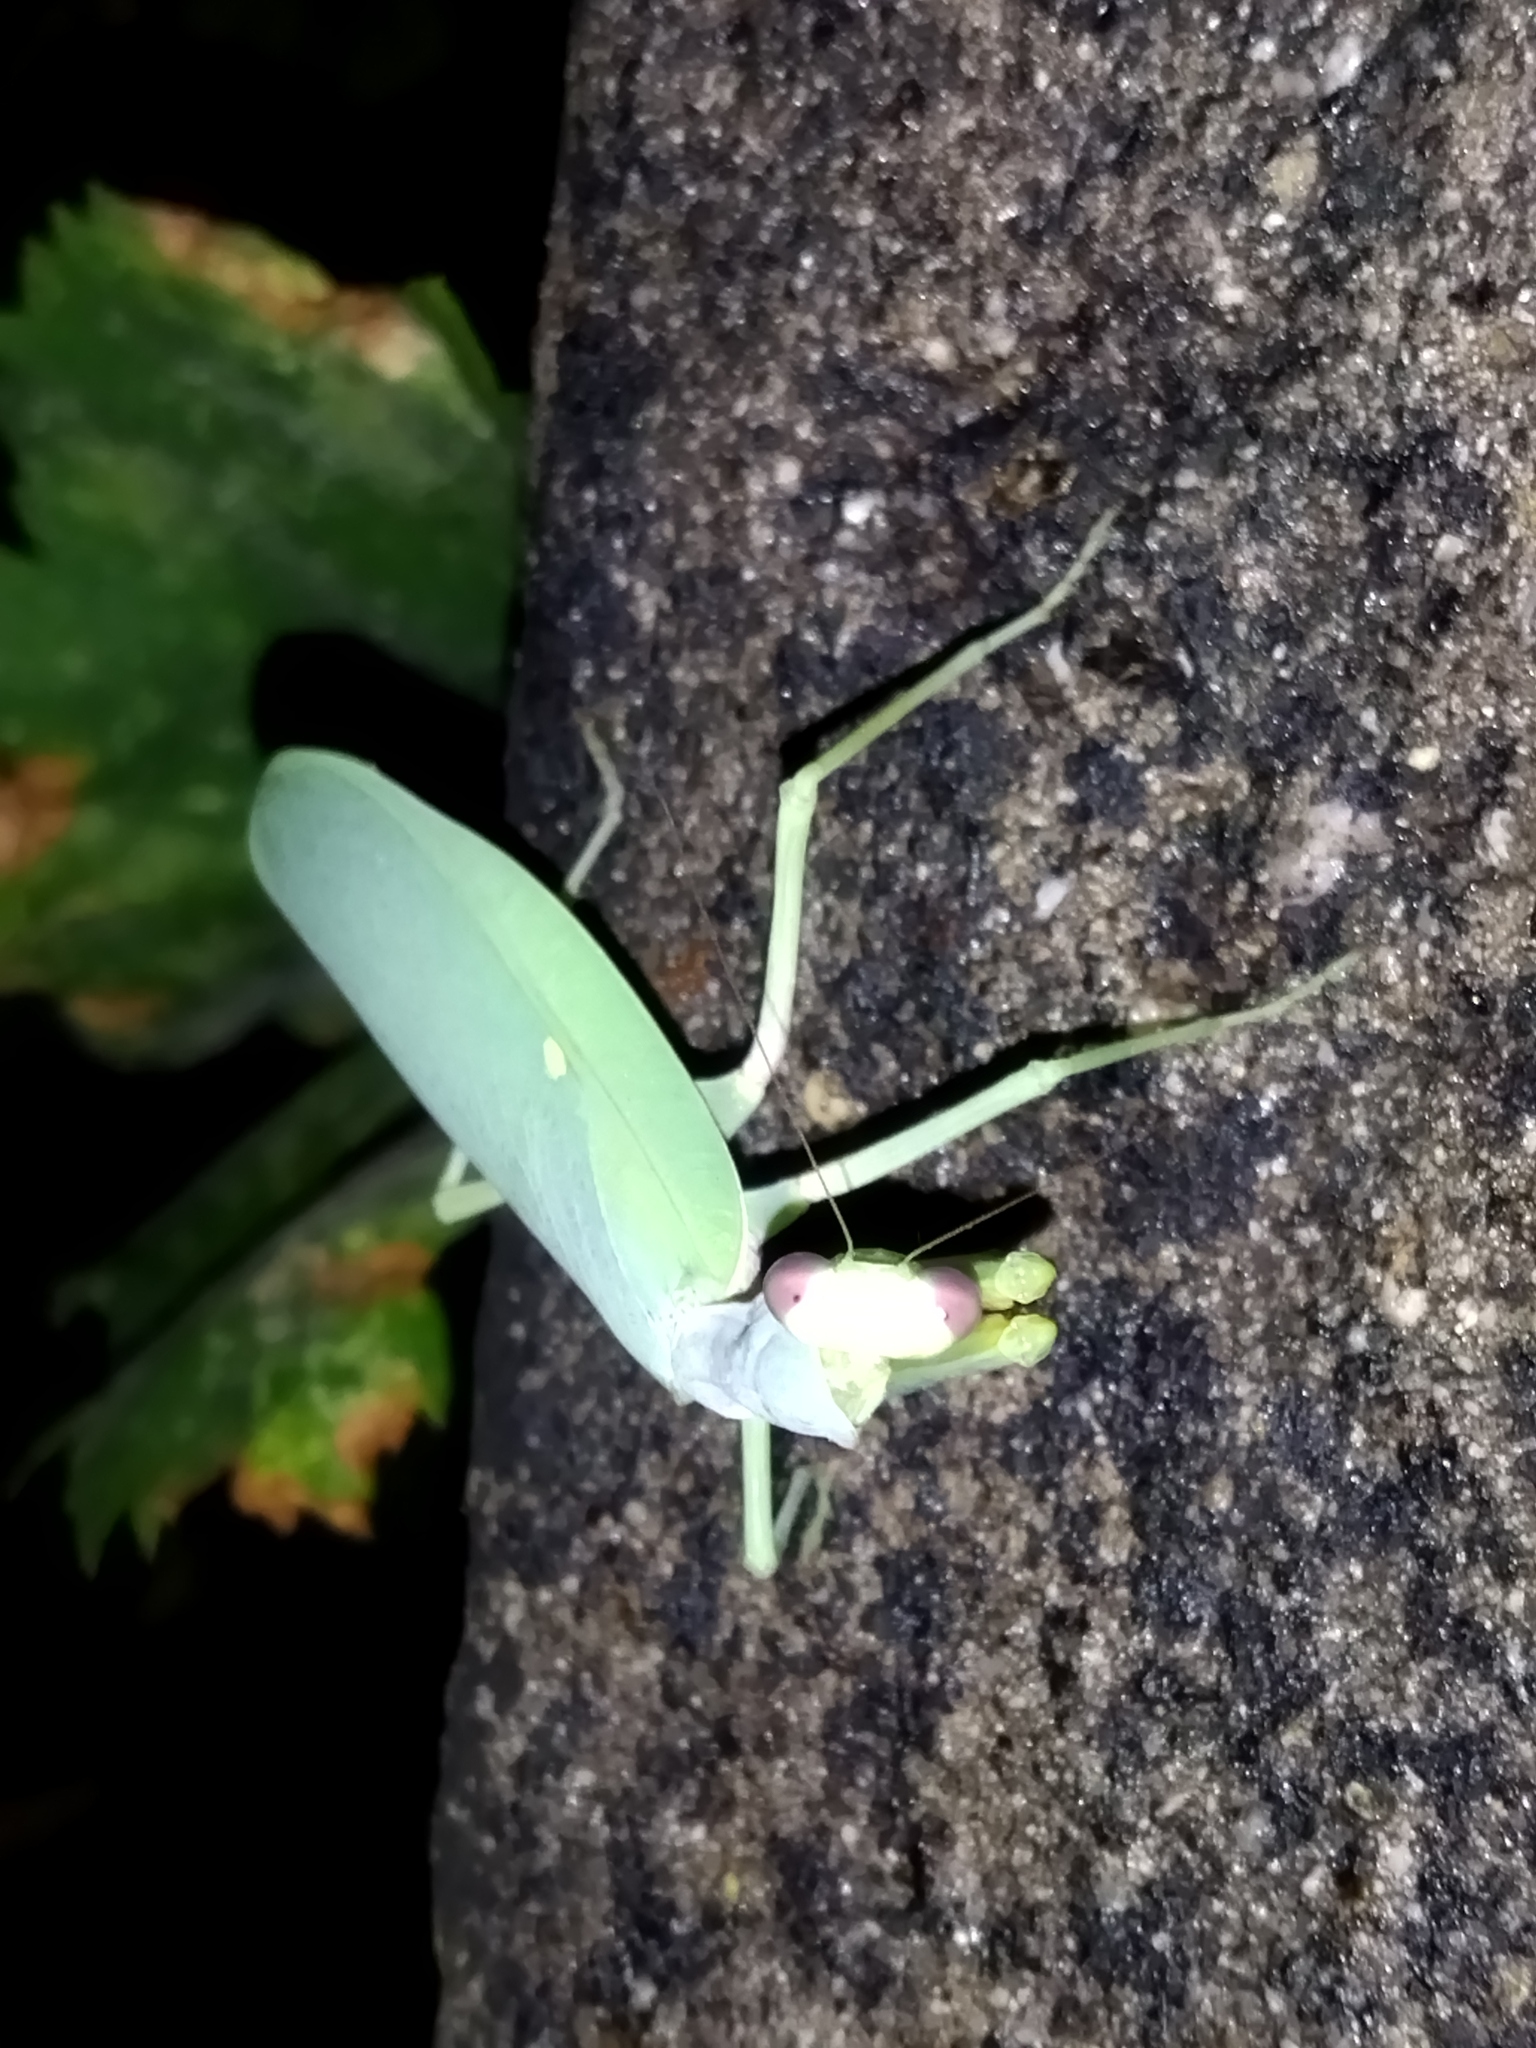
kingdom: Animalia
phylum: Arthropoda
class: Insecta
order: Mantodea
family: Mantidae
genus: Hierodula
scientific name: Hierodula transcaucasica
